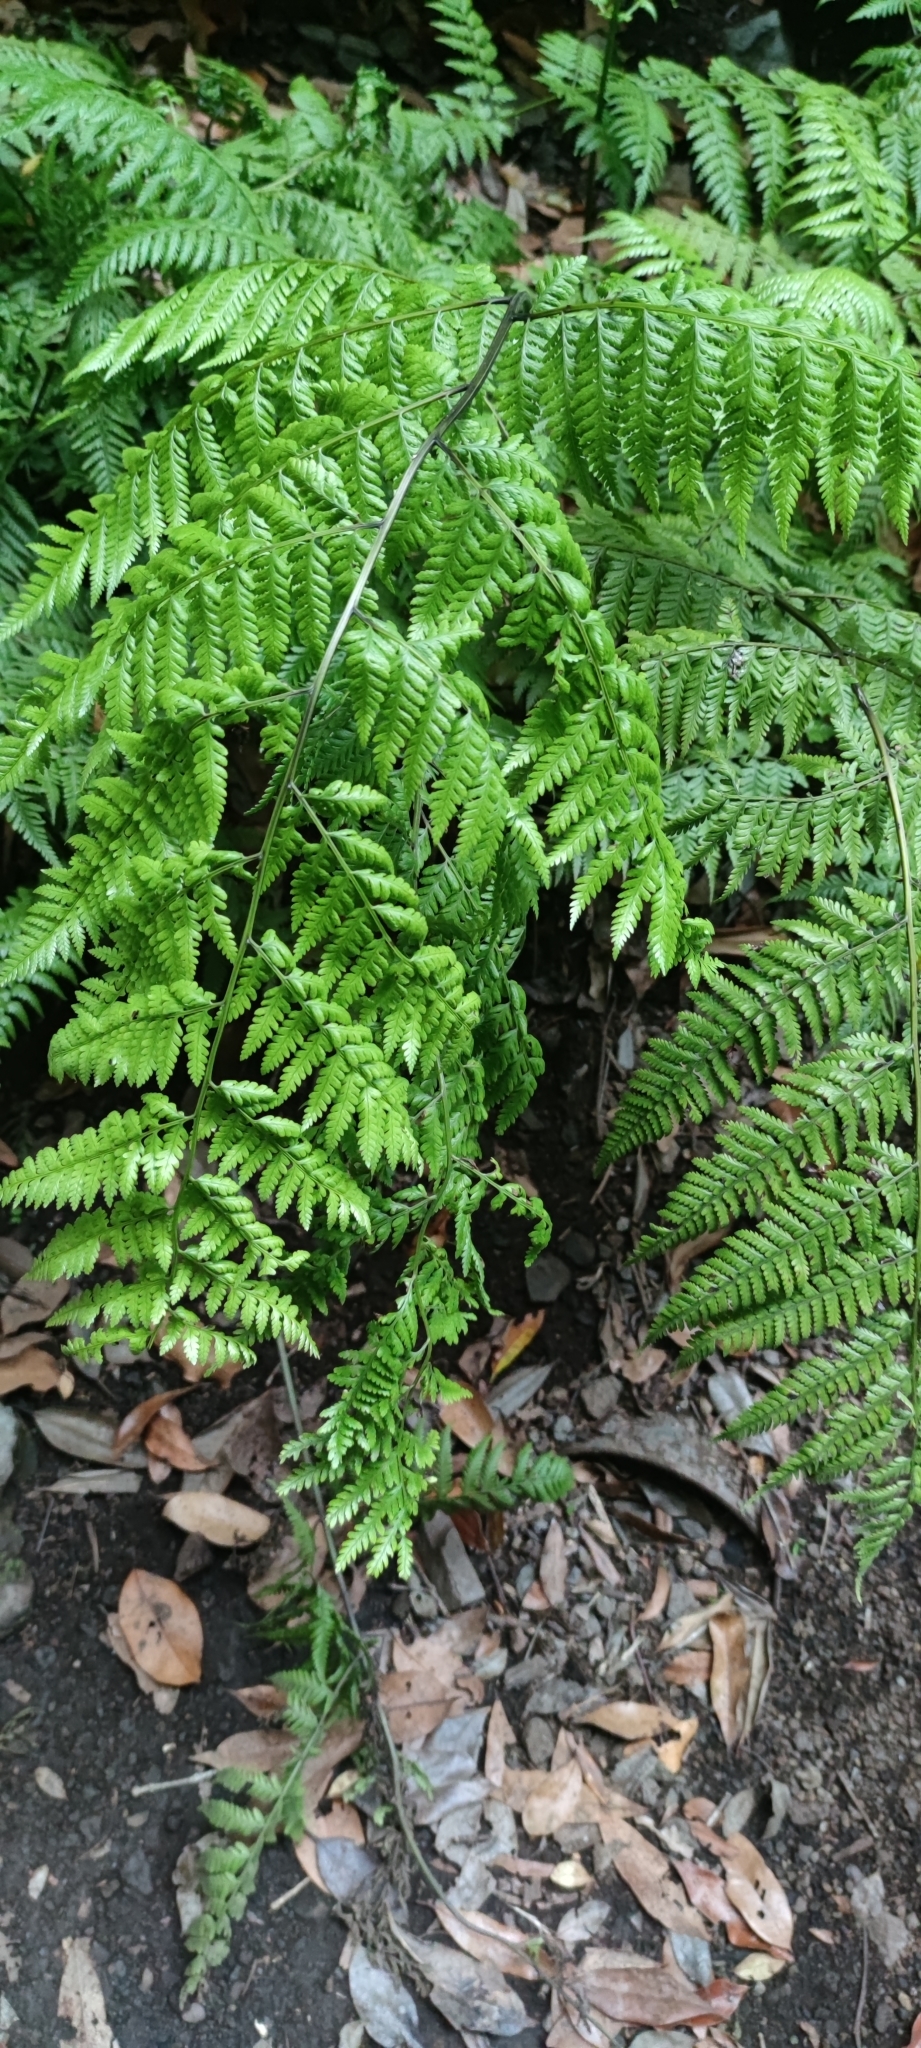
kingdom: Plantae
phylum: Tracheophyta
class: Polypodiopsida
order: Polypodiales
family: Athyriaceae
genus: Diplazium
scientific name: Diplazium caudatum
